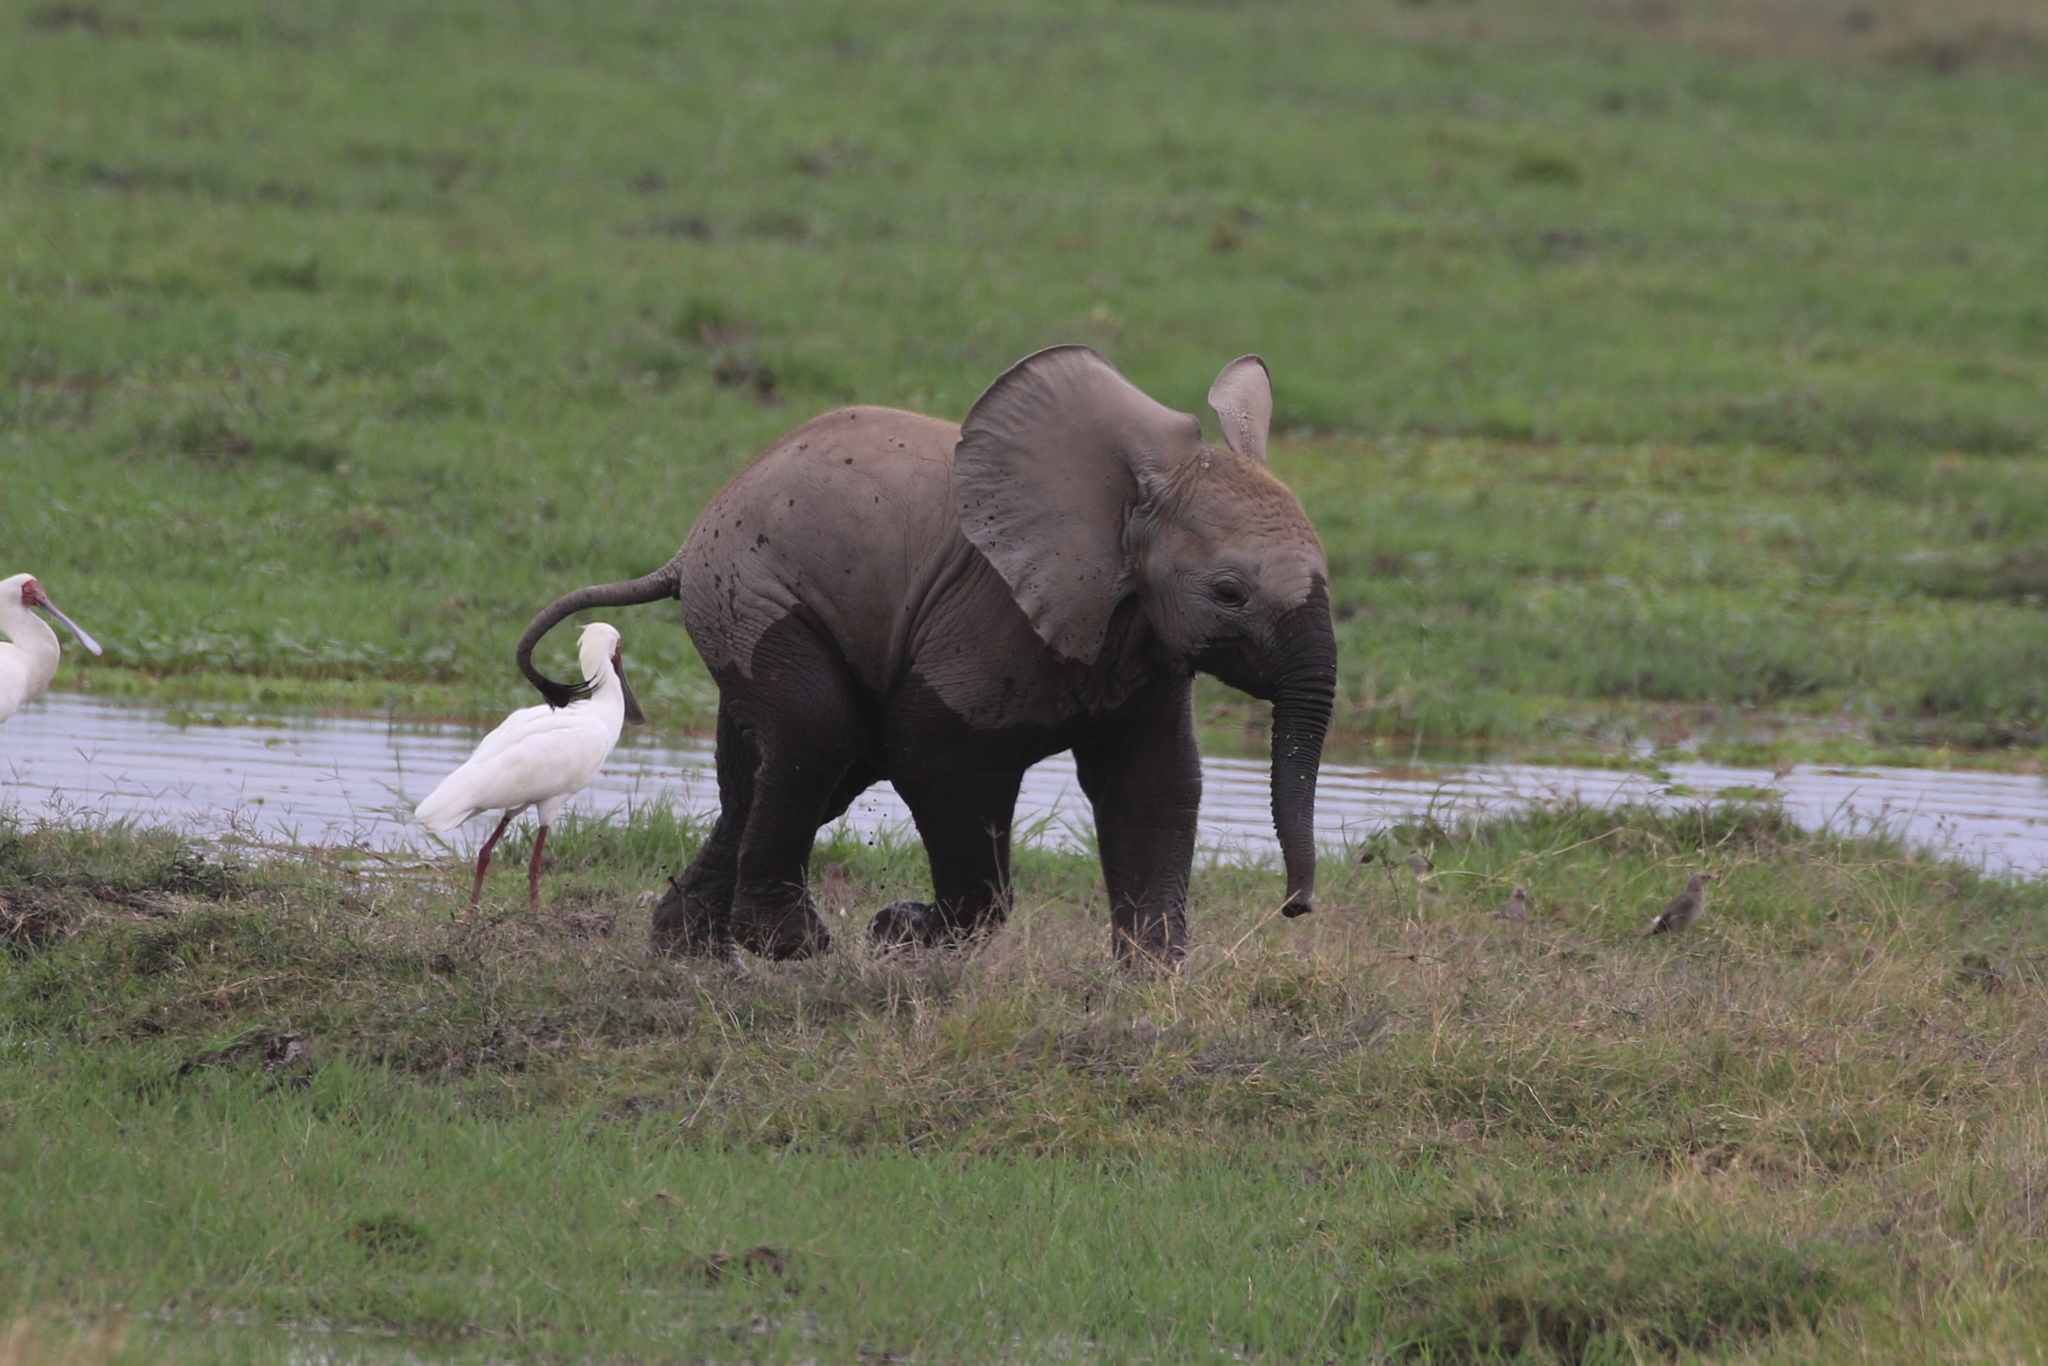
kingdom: Animalia
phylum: Chordata
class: Mammalia
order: Proboscidea
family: Elephantidae
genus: Loxodonta
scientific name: Loxodonta africana
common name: African elephant
